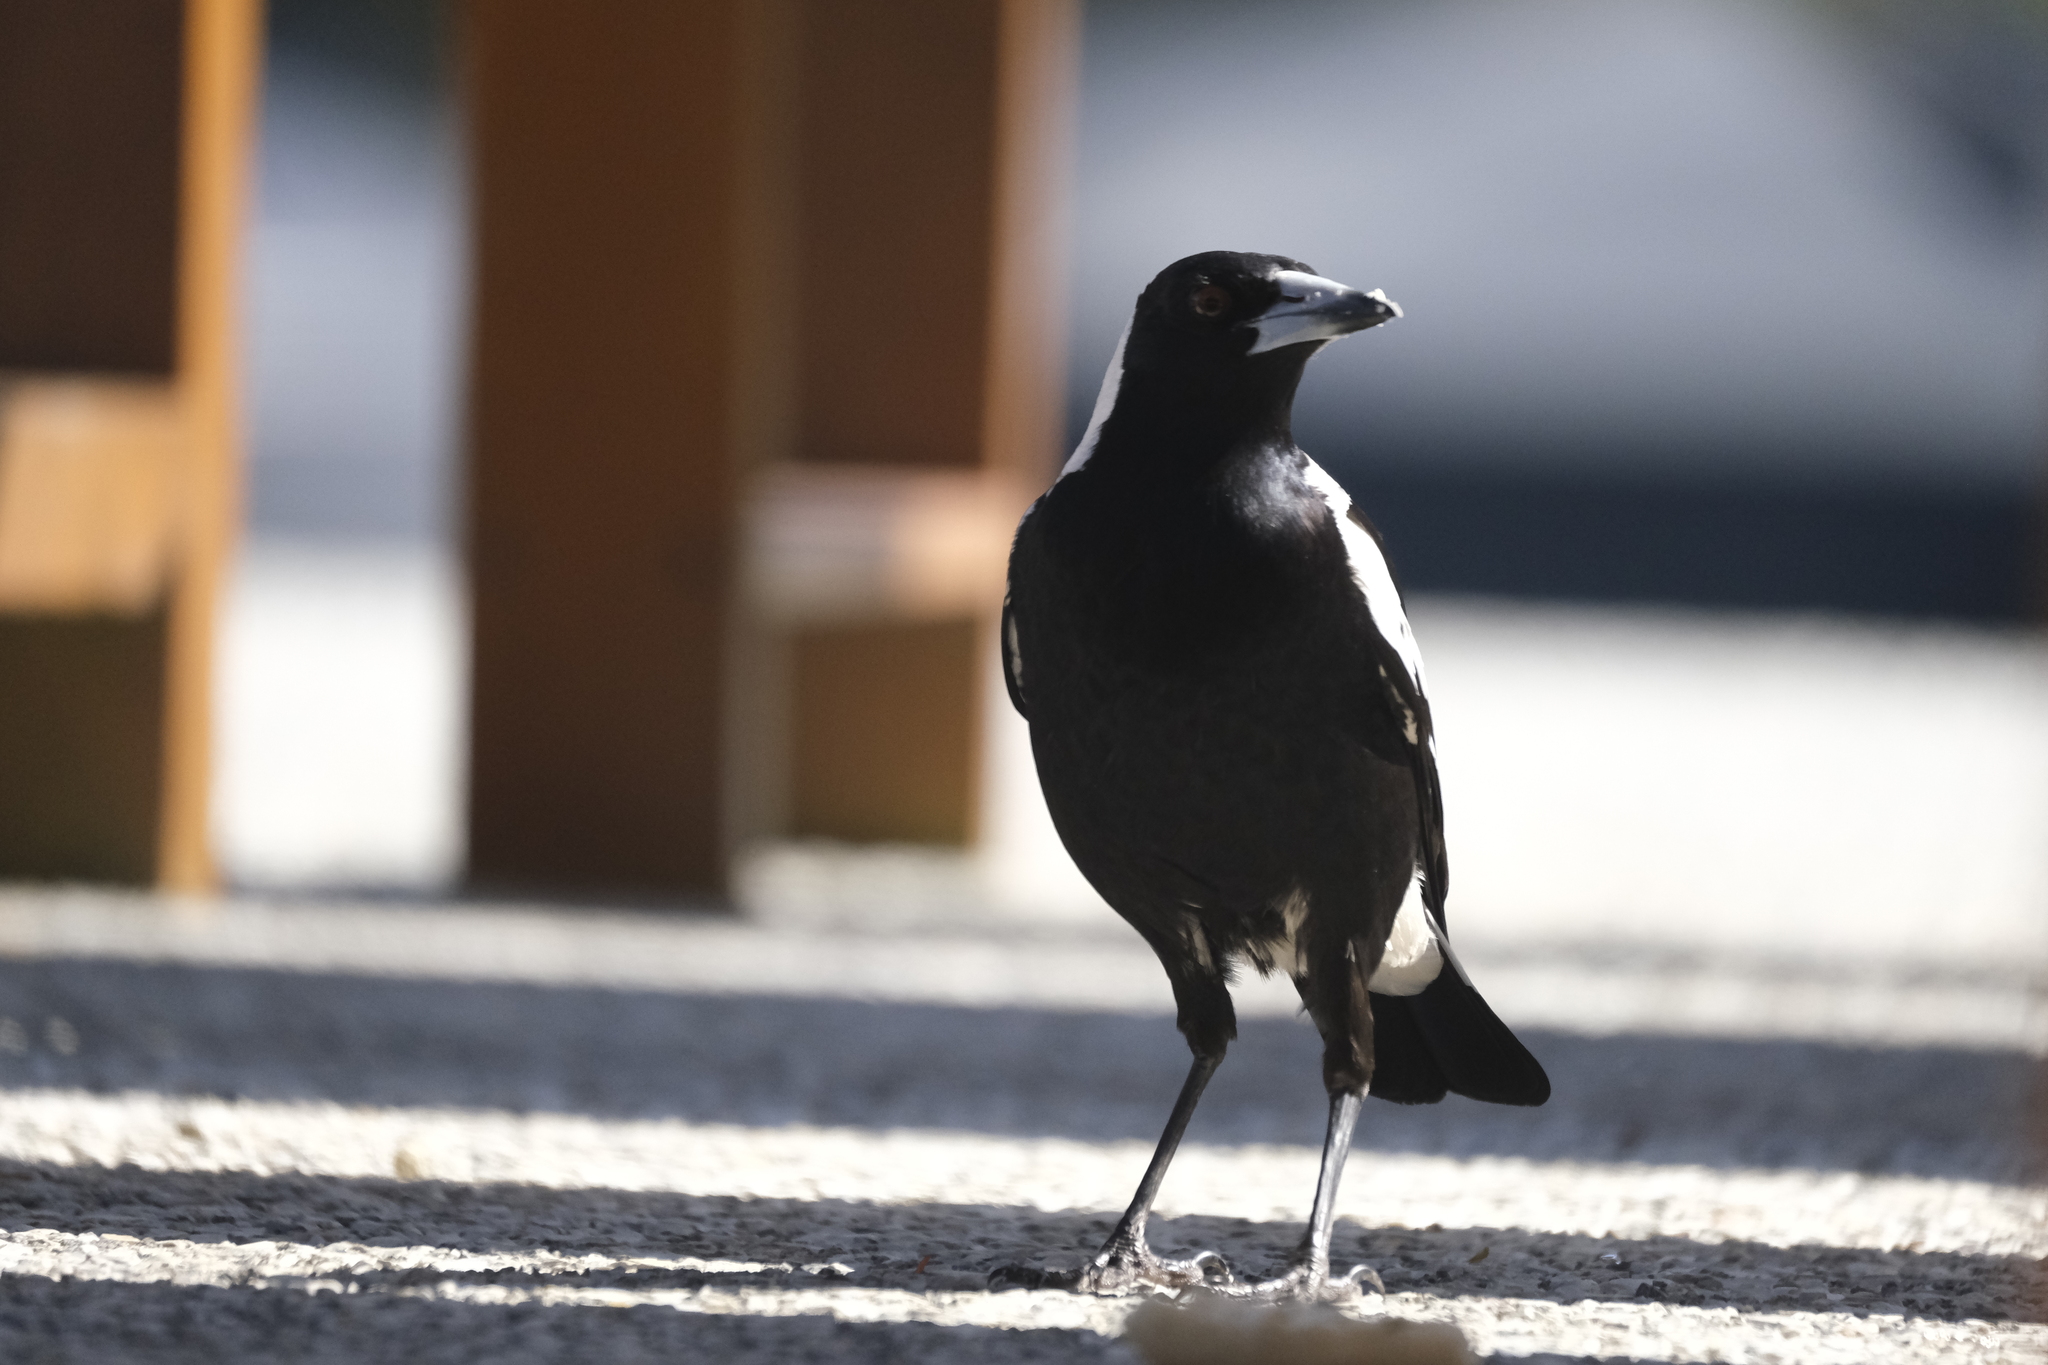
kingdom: Animalia
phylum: Chordata
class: Aves
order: Passeriformes
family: Cracticidae
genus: Gymnorhina
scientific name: Gymnorhina tibicen
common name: Australian magpie
